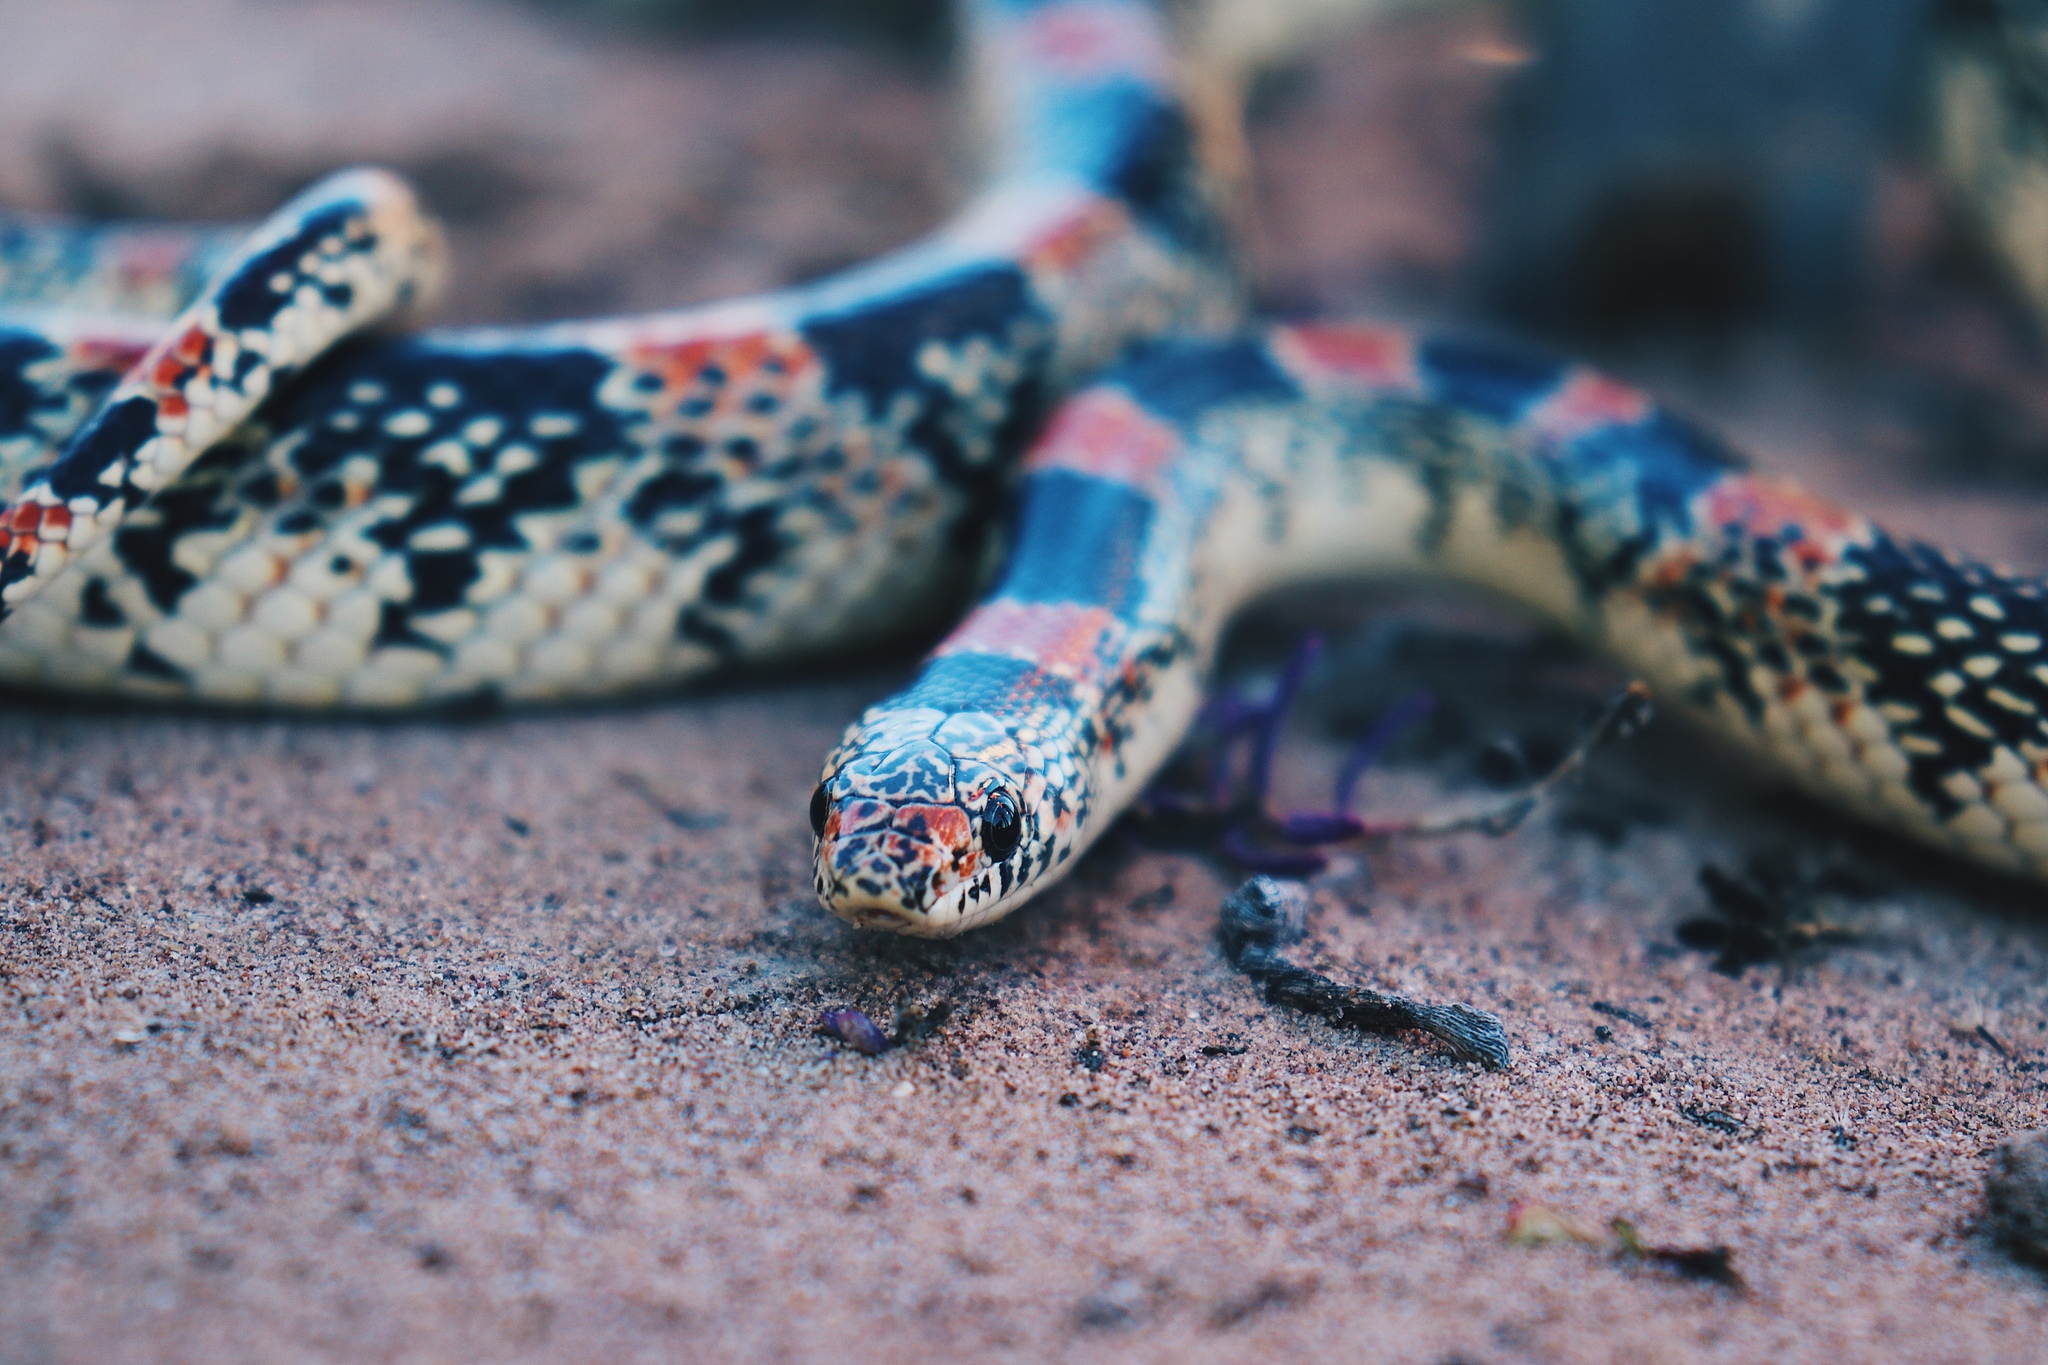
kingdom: Animalia
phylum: Chordata
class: Squamata
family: Colubridae
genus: Rhinocheilus
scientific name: Rhinocheilus lecontei
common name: Longnose snake
